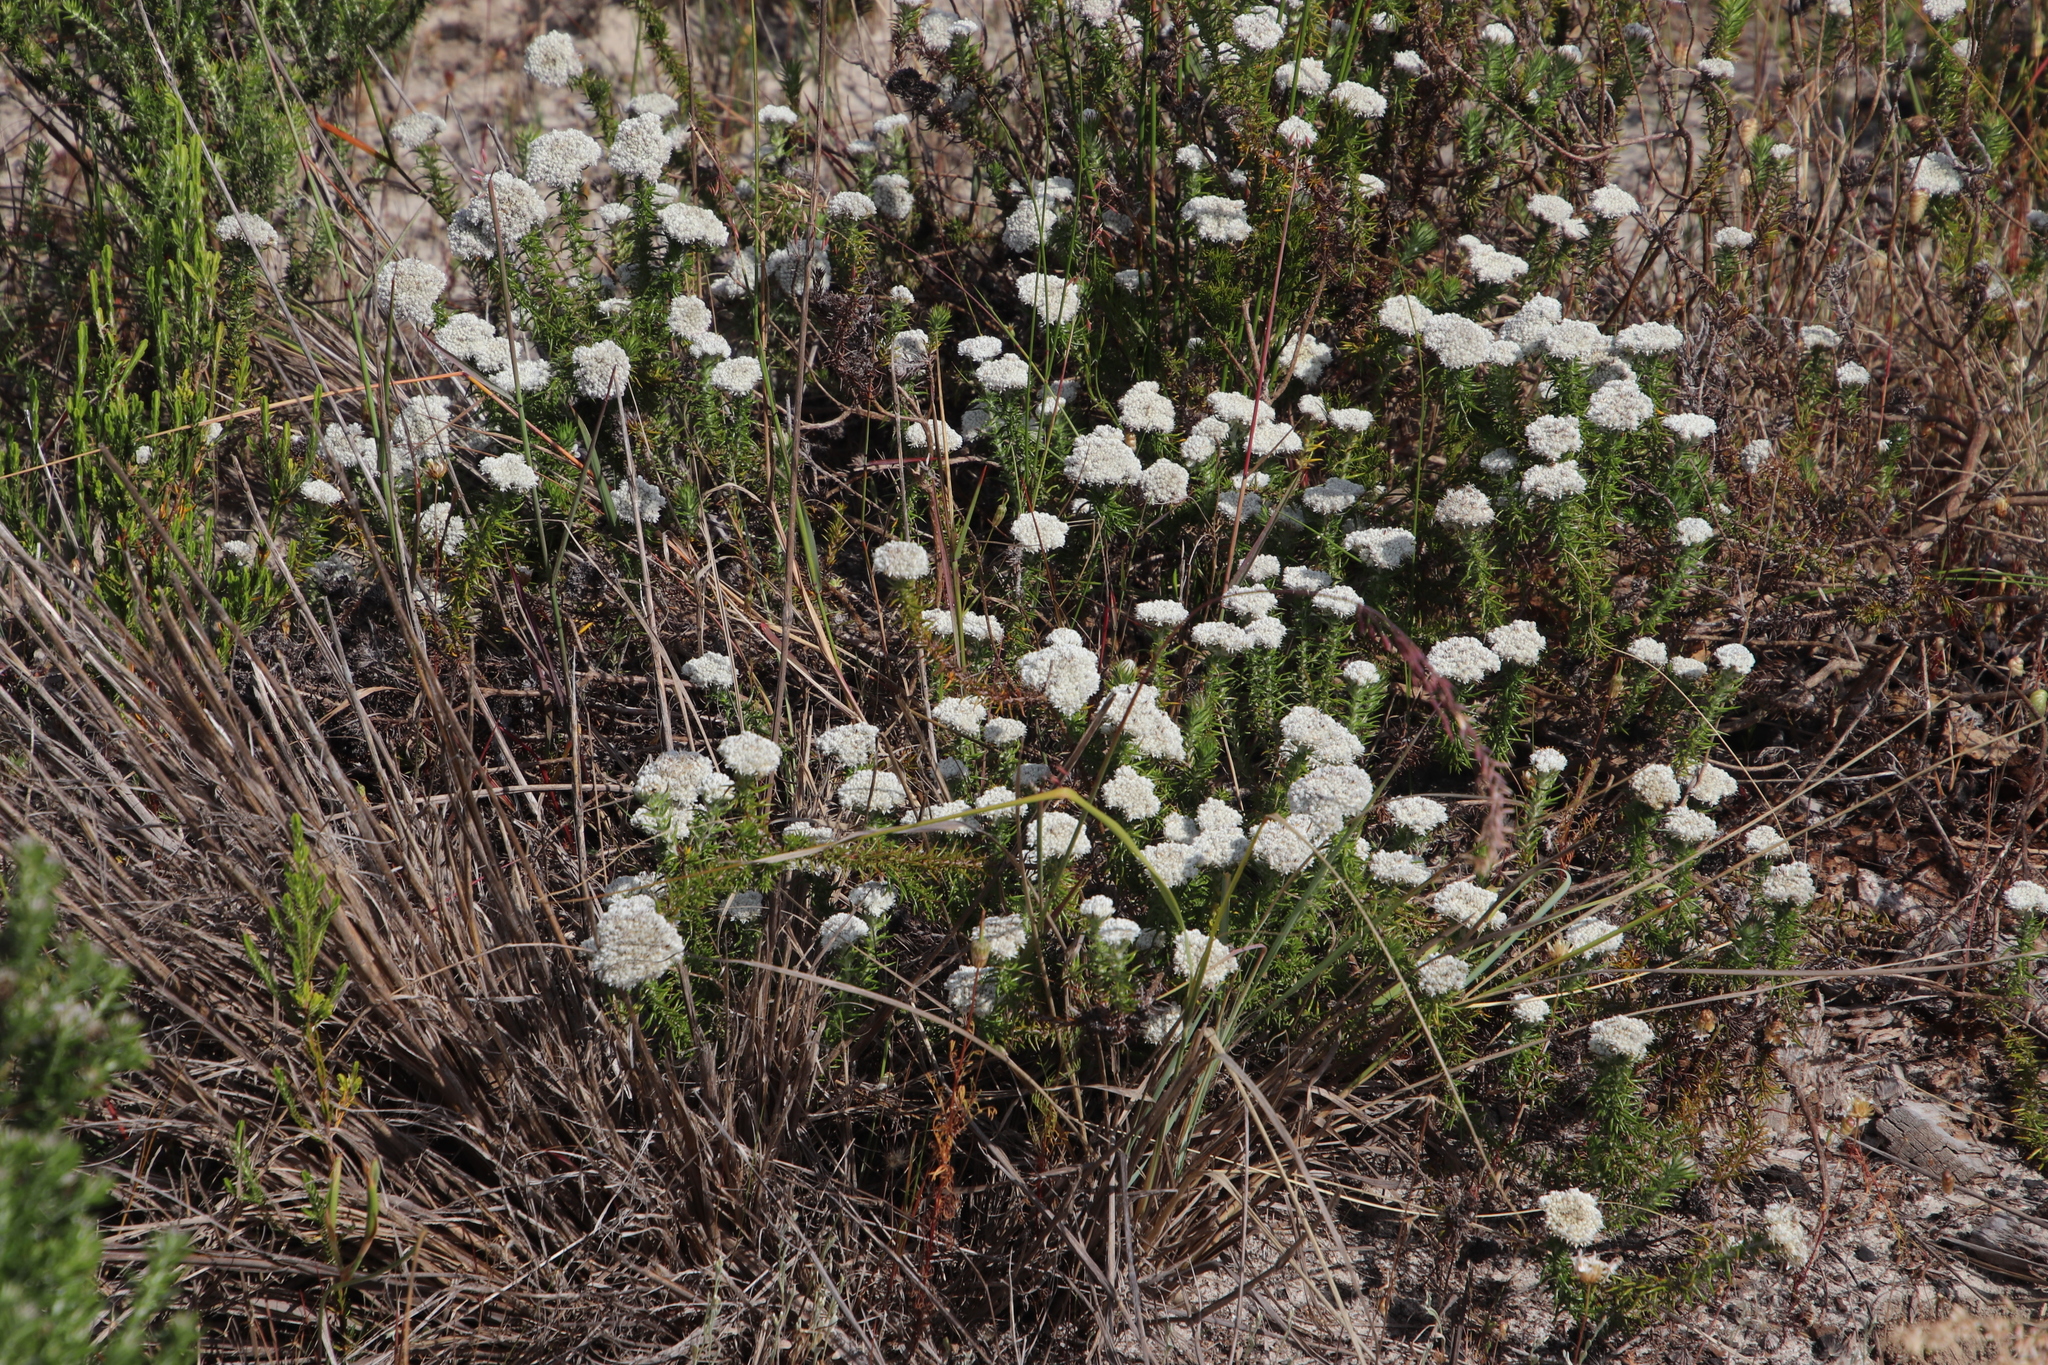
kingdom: Plantae
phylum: Tracheophyta
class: Magnoliopsida
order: Asterales
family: Asteraceae
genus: Metalasia
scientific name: Metalasia pulchella
